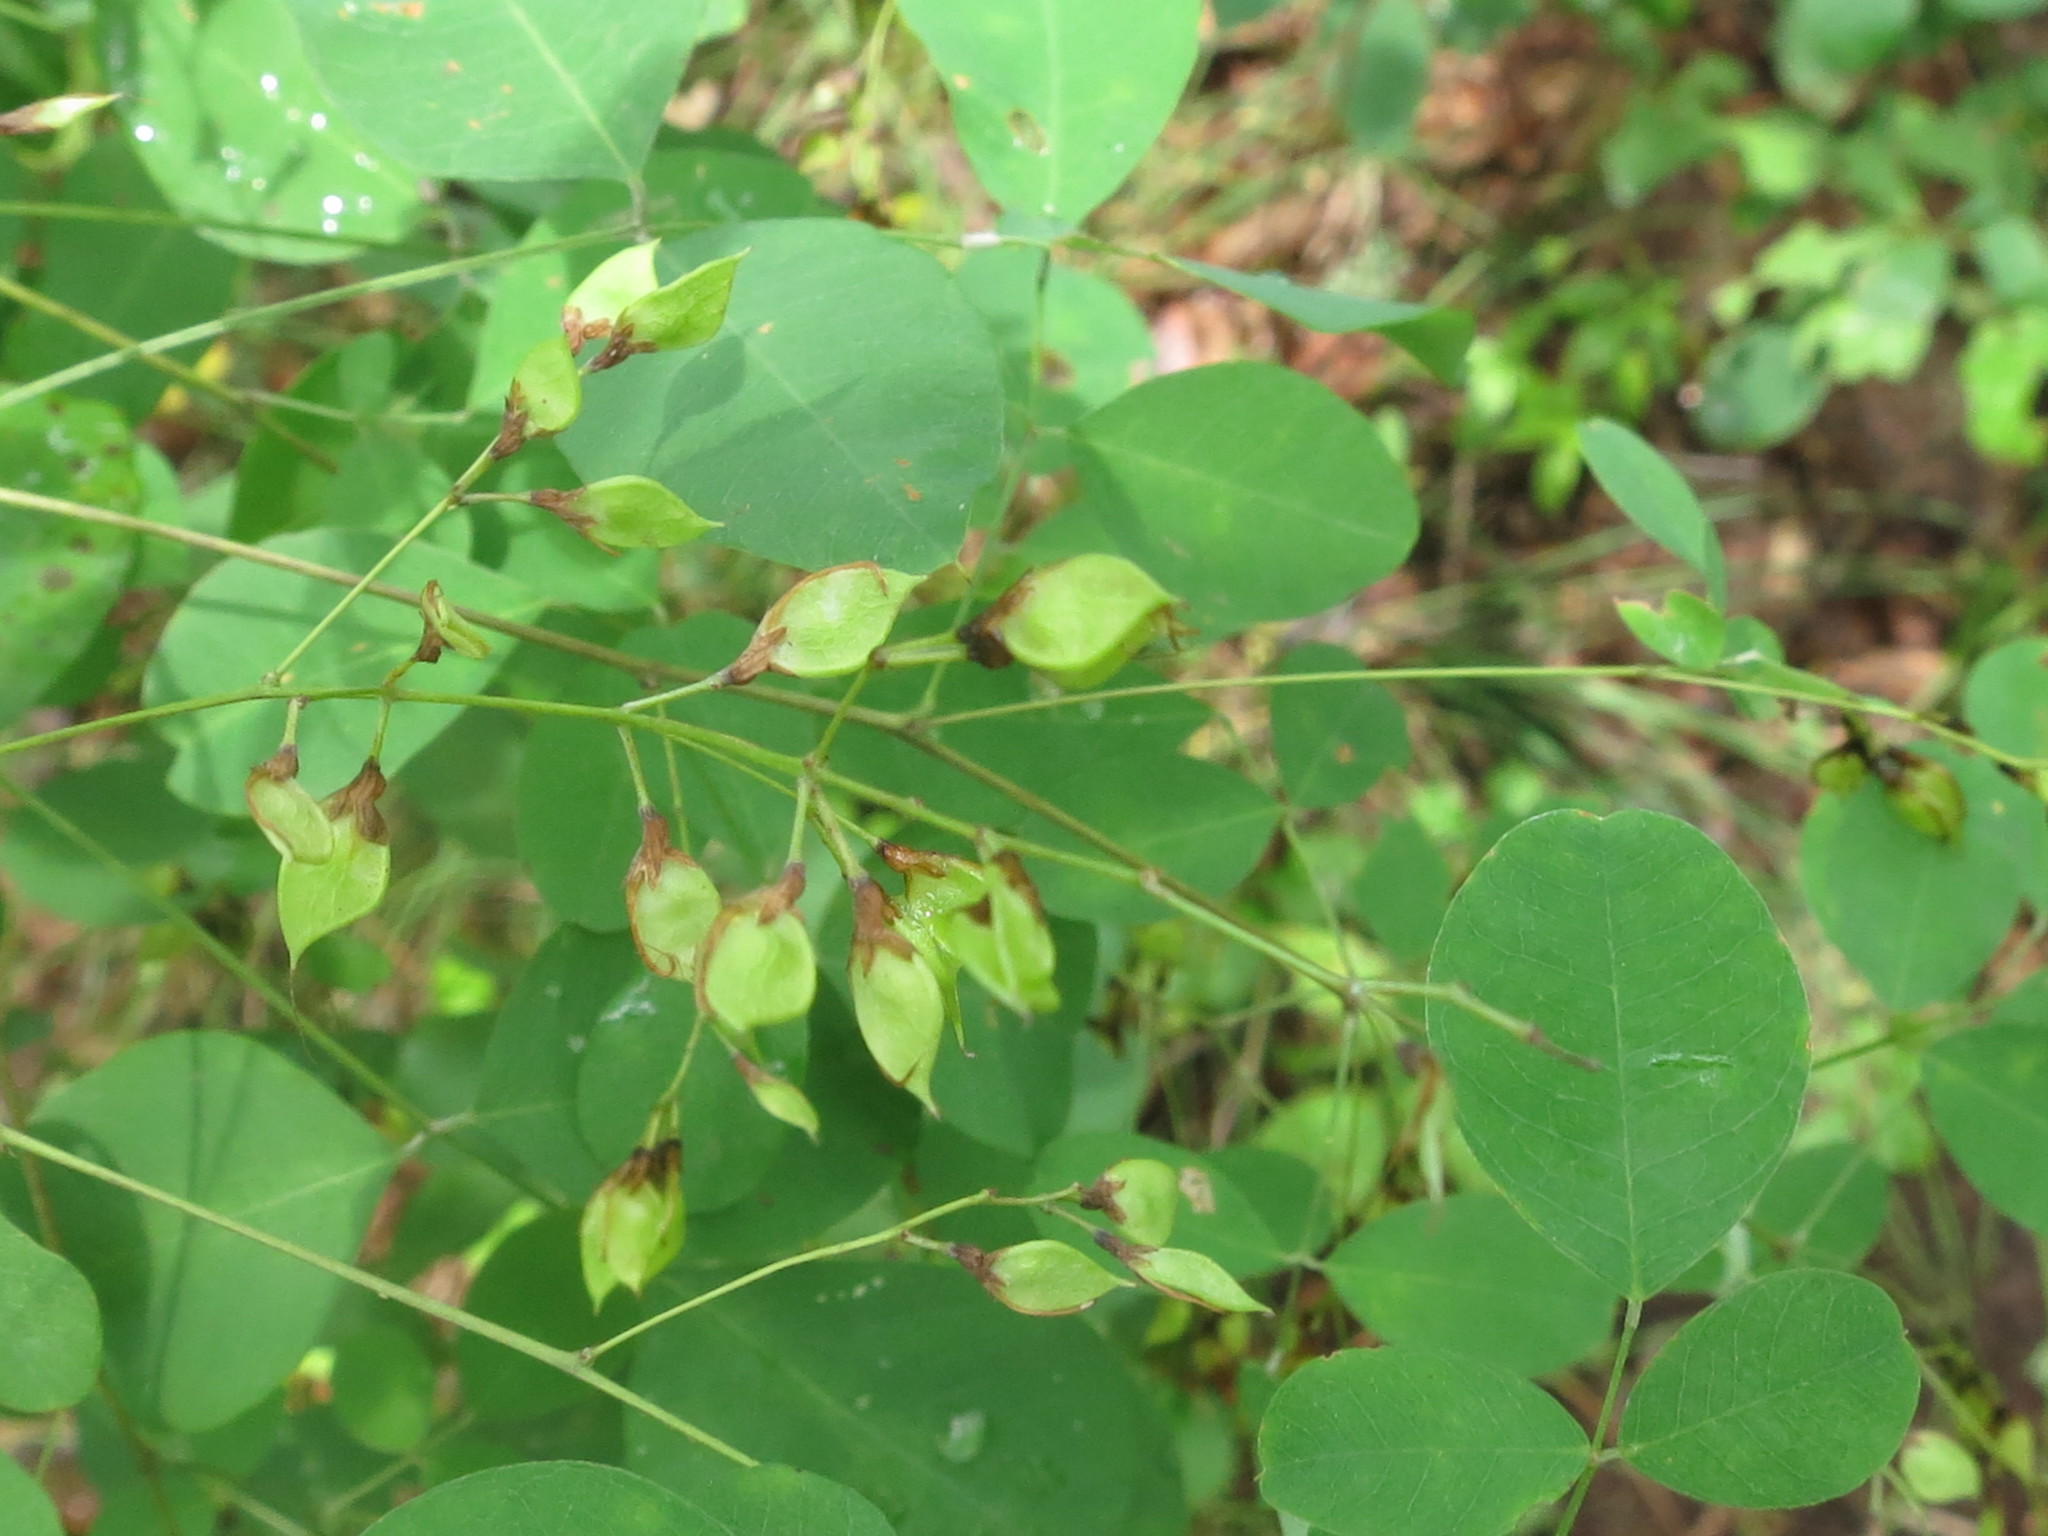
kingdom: Plantae
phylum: Tracheophyta
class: Magnoliopsida
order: Fabales
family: Fabaceae
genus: Lespedeza
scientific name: Lespedeza bicolor
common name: Shrub lespedeza
